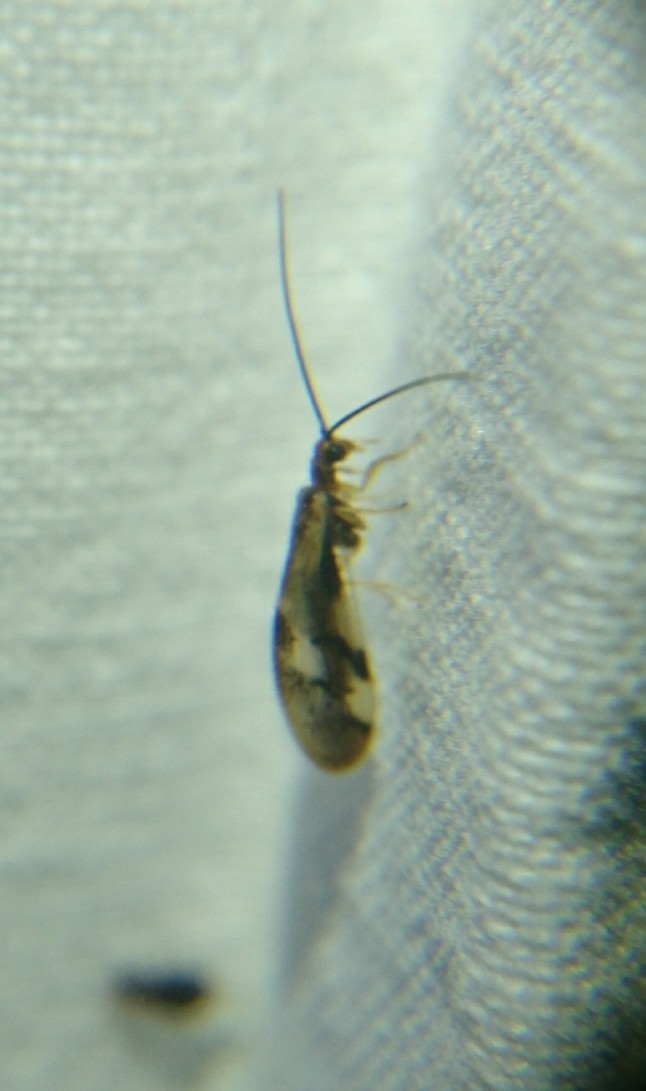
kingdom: Animalia
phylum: Arthropoda
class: Insecta
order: Neuroptera
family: Sisyridae
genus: Climacia
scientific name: Climacia areolaris
